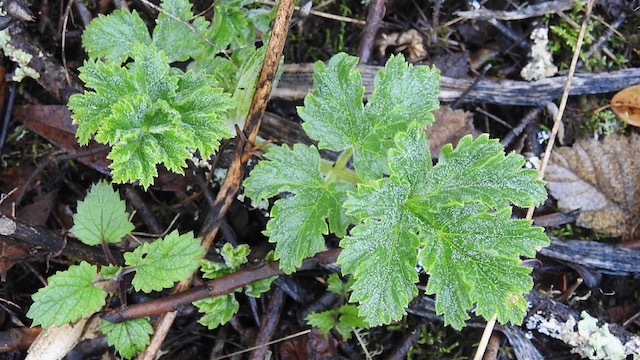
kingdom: Plantae
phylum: Tracheophyta
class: Magnoliopsida
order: Apiales
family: Apiaceae
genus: Heracleum
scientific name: Heracleum maximum
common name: American cow parsnip
